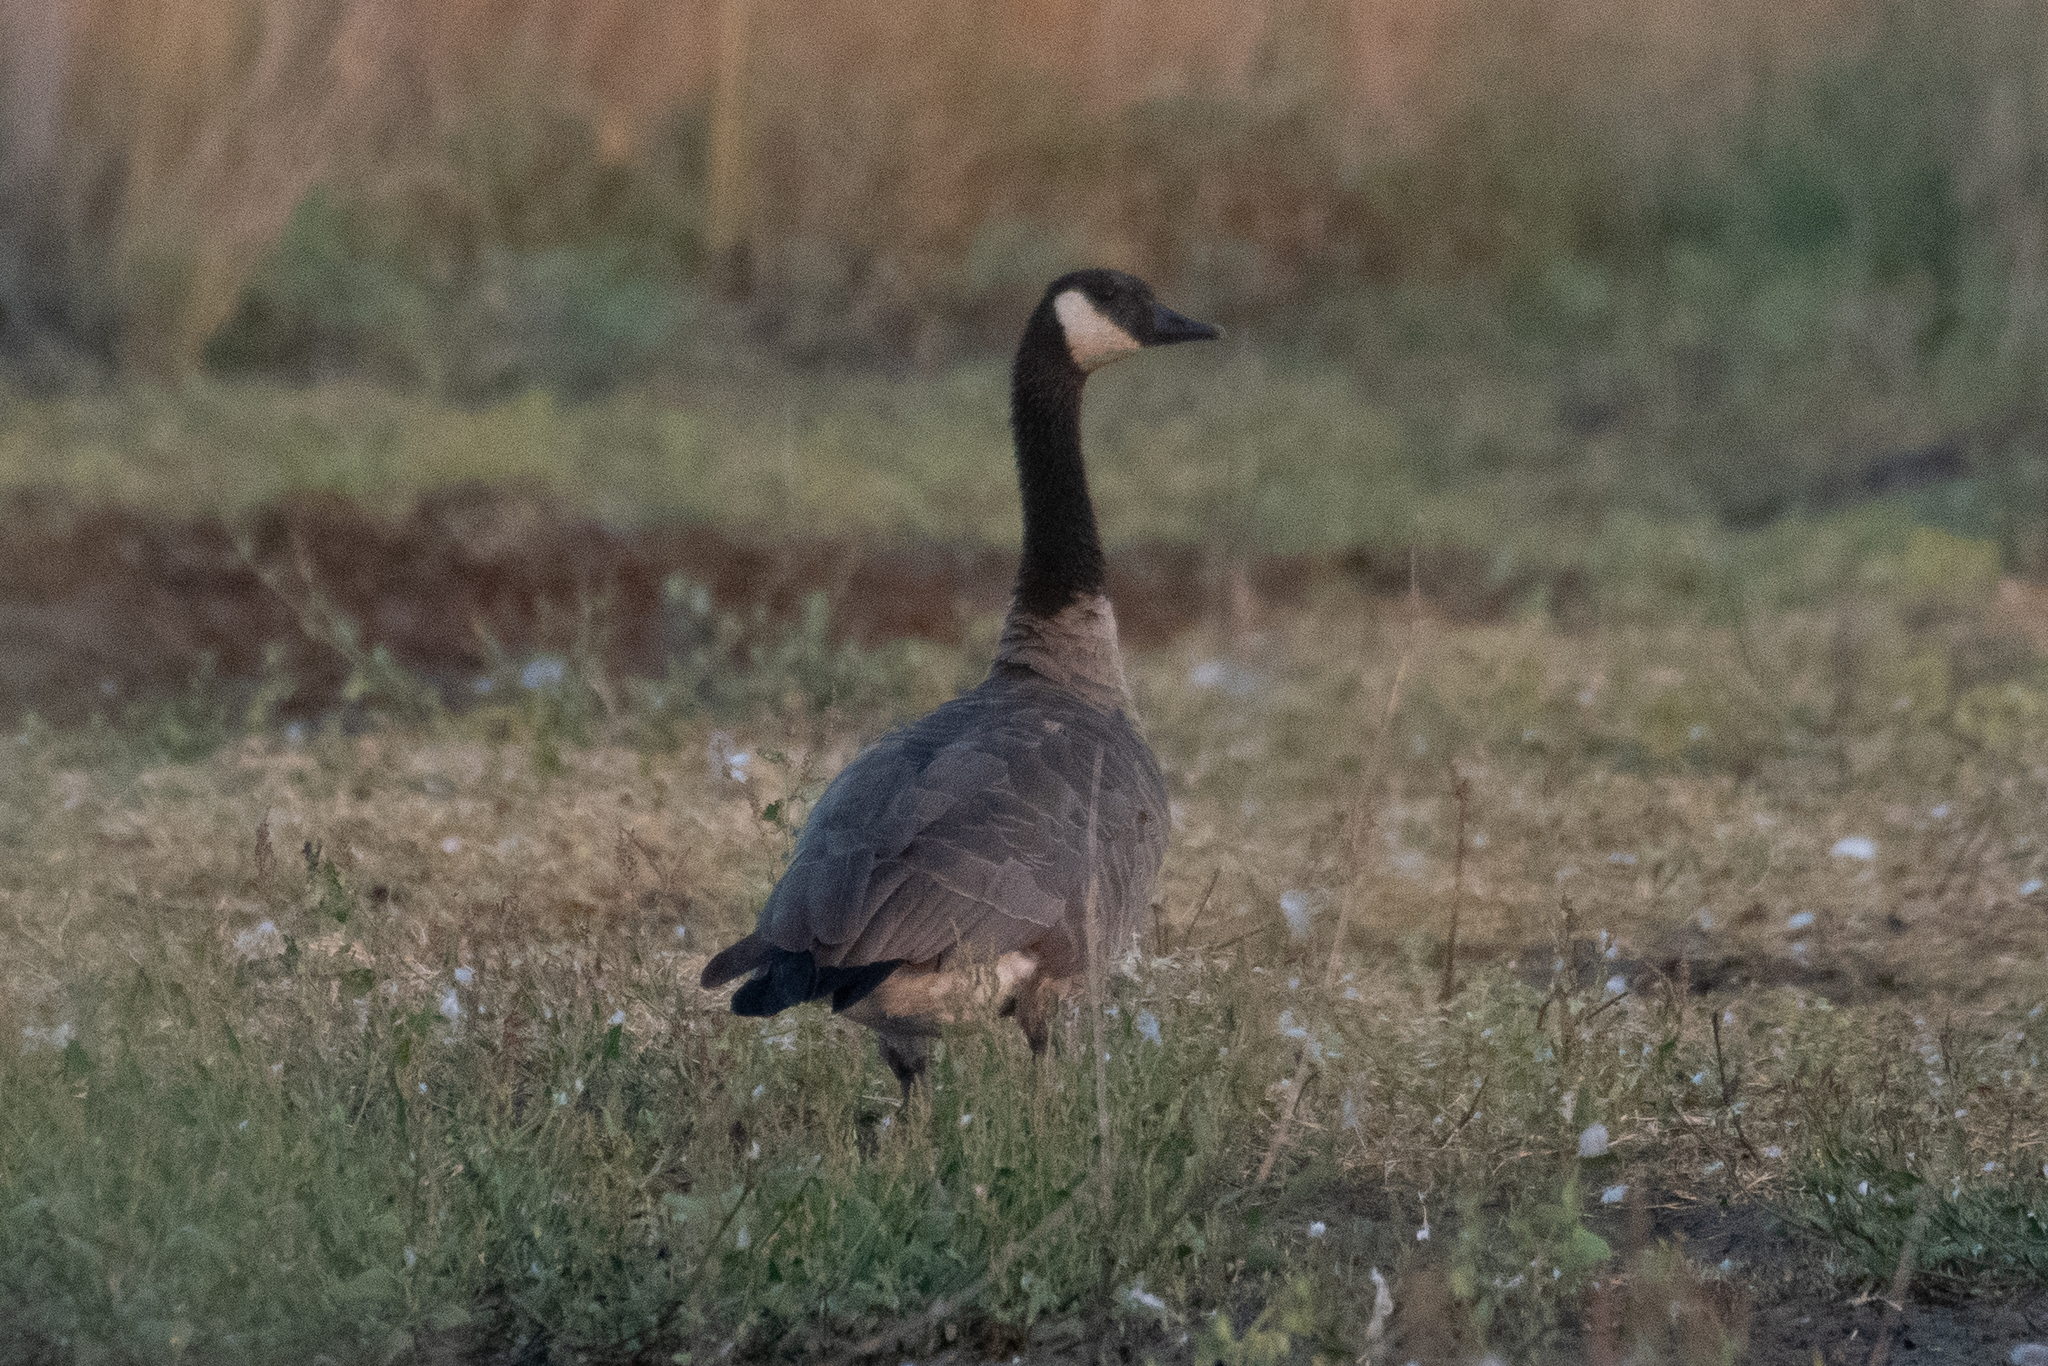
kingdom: Animalia
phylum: Chordata
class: Aves
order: Anseriformes
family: Anatidae
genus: Branta
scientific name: Branta canadensis
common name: Canada goose
